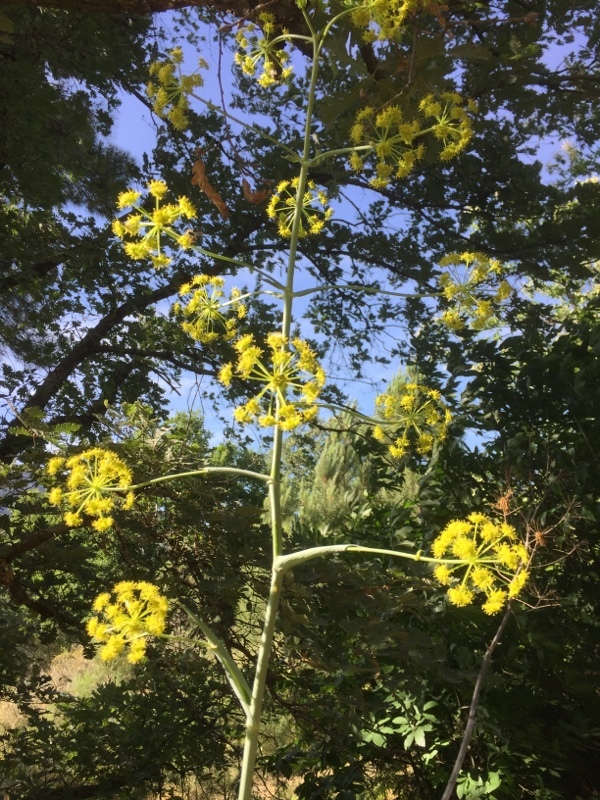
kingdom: Plantae
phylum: Tracheophyta
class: Magnoliopsida
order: Apiales
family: Apiaceae
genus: Ferula
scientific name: Ferula communis
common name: Giant fennel
